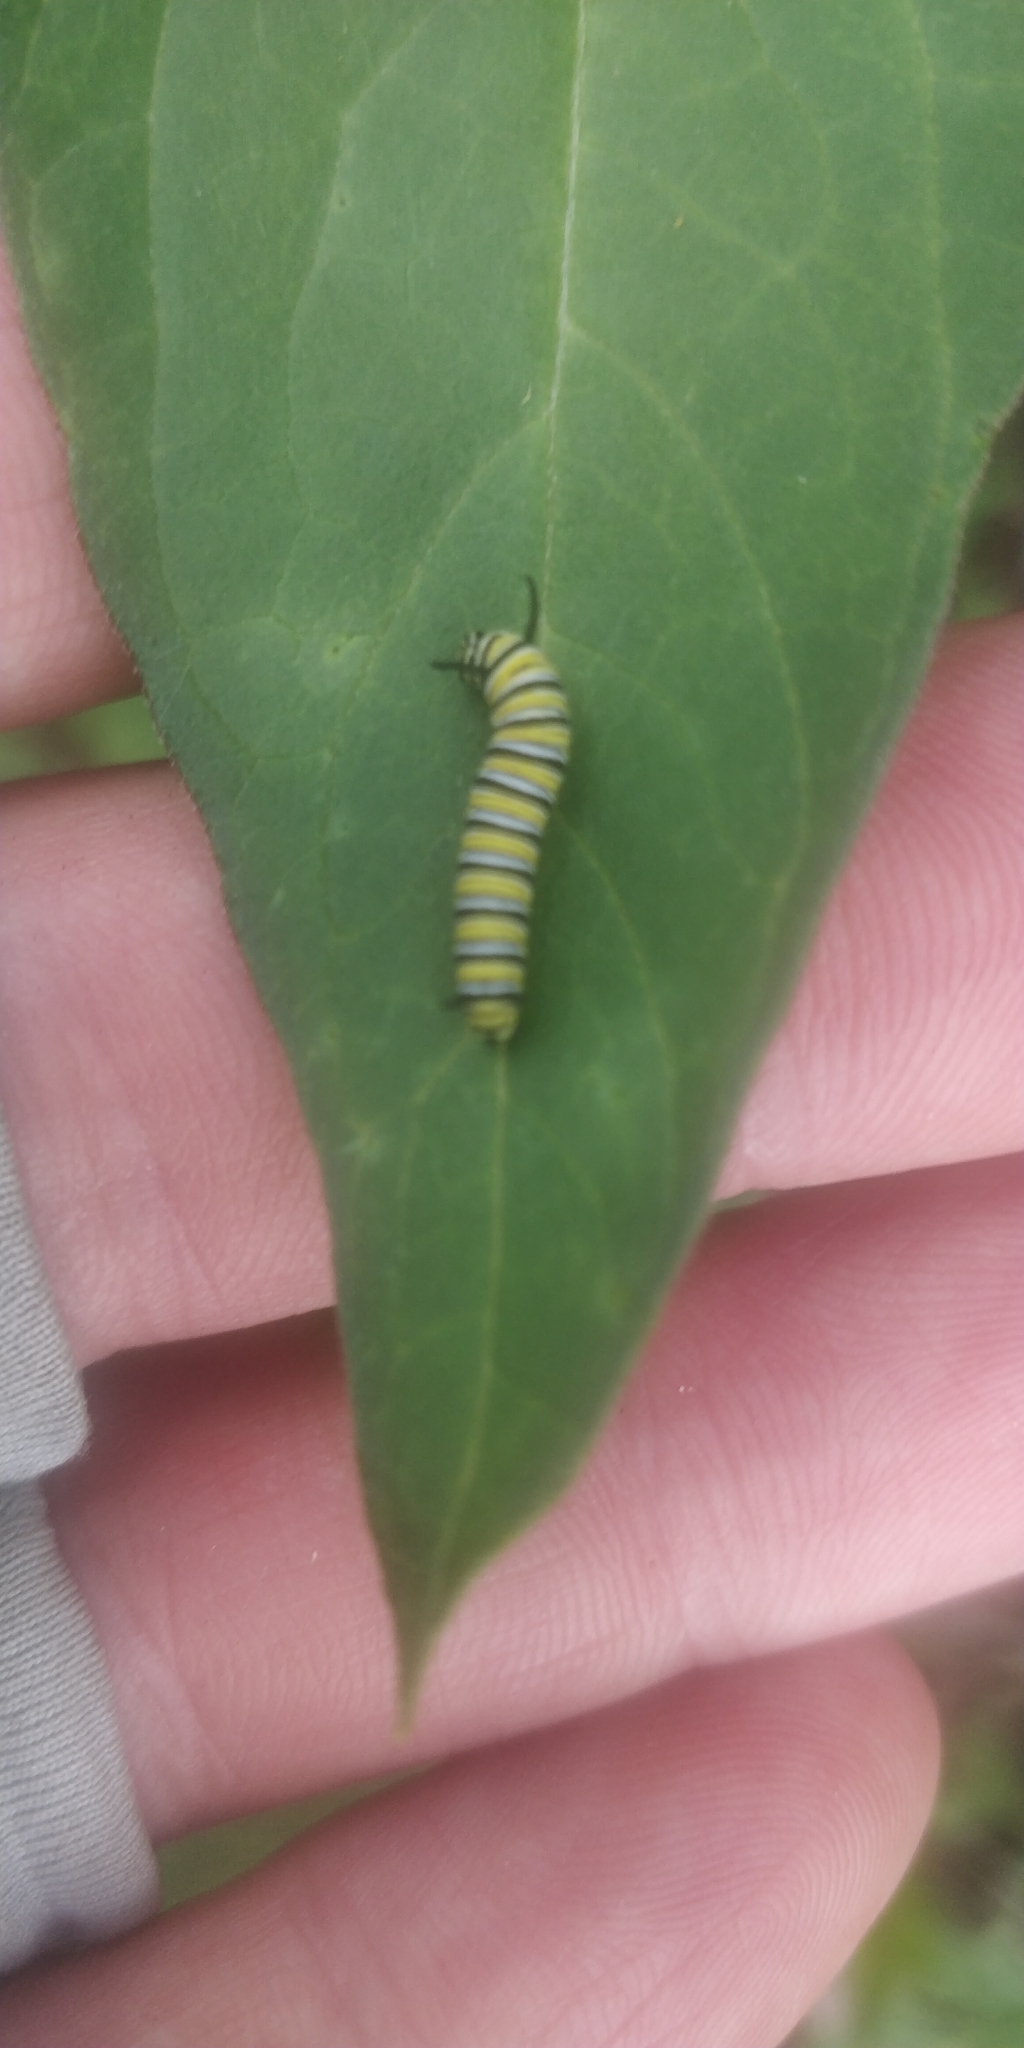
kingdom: Animalia
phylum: Arthropoda
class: Insecta
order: Lepidoptera
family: Nymphalidae
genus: Danaus
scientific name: Danaus plexippus
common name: Monarch
